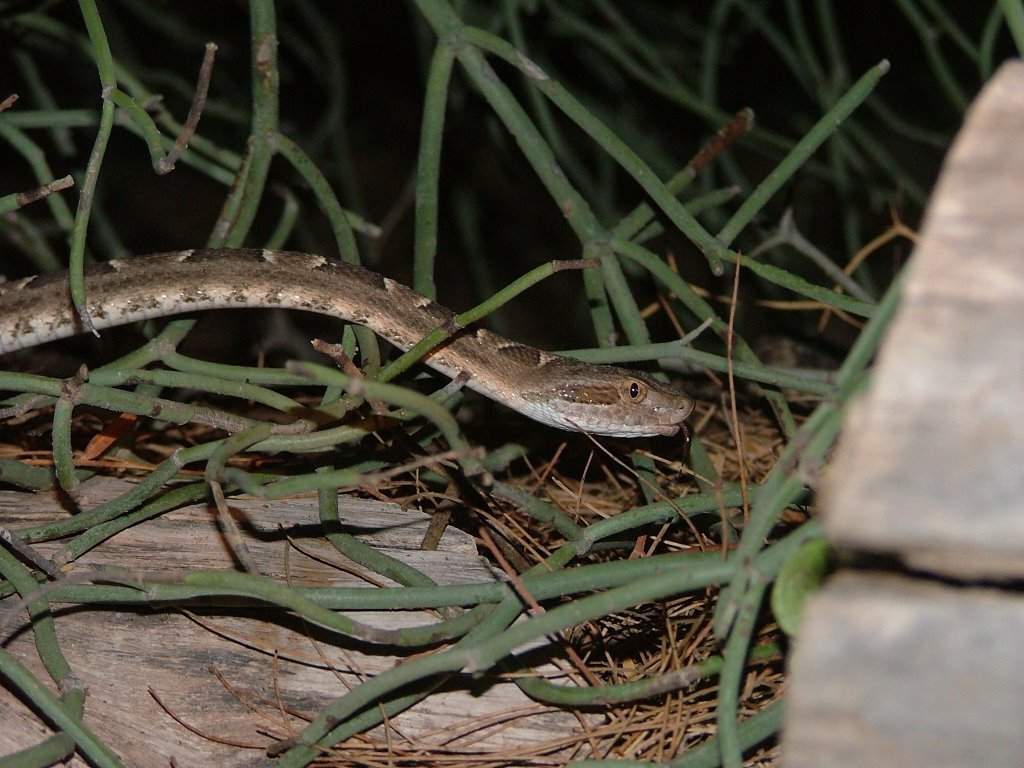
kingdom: Animalia
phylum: Chordata
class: Squamata
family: Viperidae
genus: Bothrops
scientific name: Bothrops diporus
